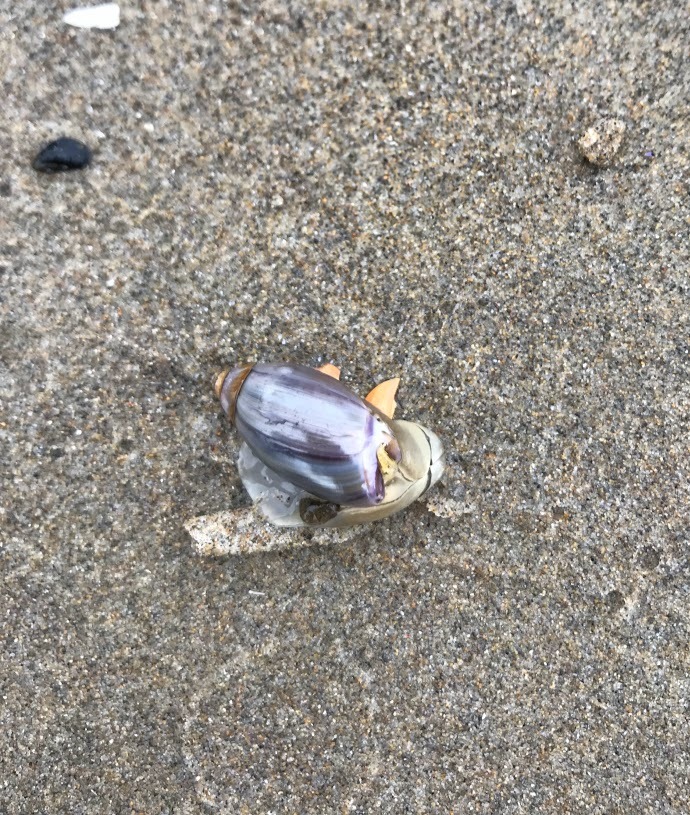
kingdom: Animalia
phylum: Mollusca
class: Gastropoda
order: Neogastropoda
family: Olividae
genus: Callianax
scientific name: Callianax biplicata
